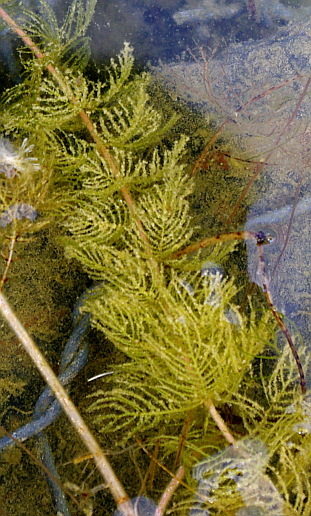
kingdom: Plantae
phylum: Tracheophyta
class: Magnoliopsida
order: Saxifragales
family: Haloragaceae
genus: Myriophyllum
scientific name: Myriophyllum sibiricum
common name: Siberian water-milfoil
